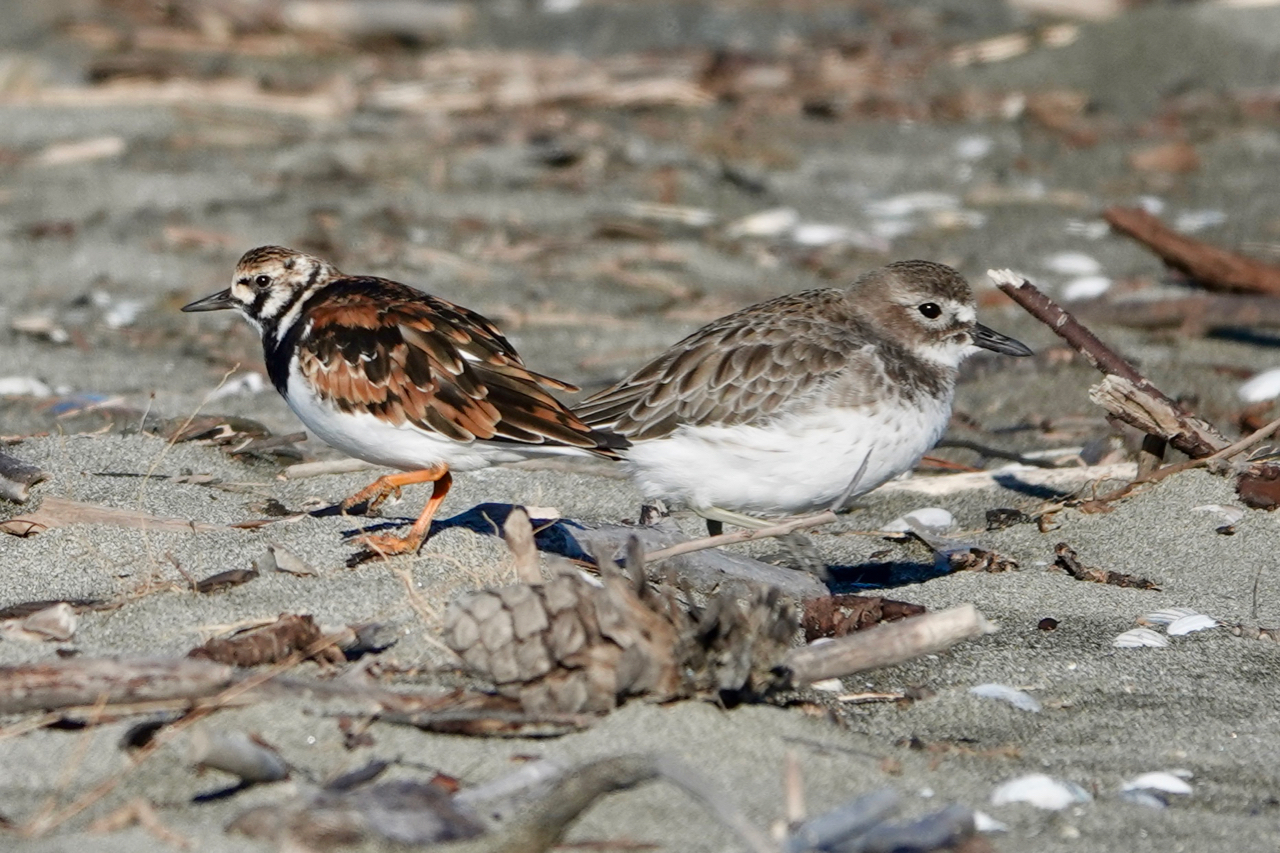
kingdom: Animalia
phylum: Chordata
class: Aves
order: Charadriiformes
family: Charadriidae
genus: Anarhynchus
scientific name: Anarhynchus
